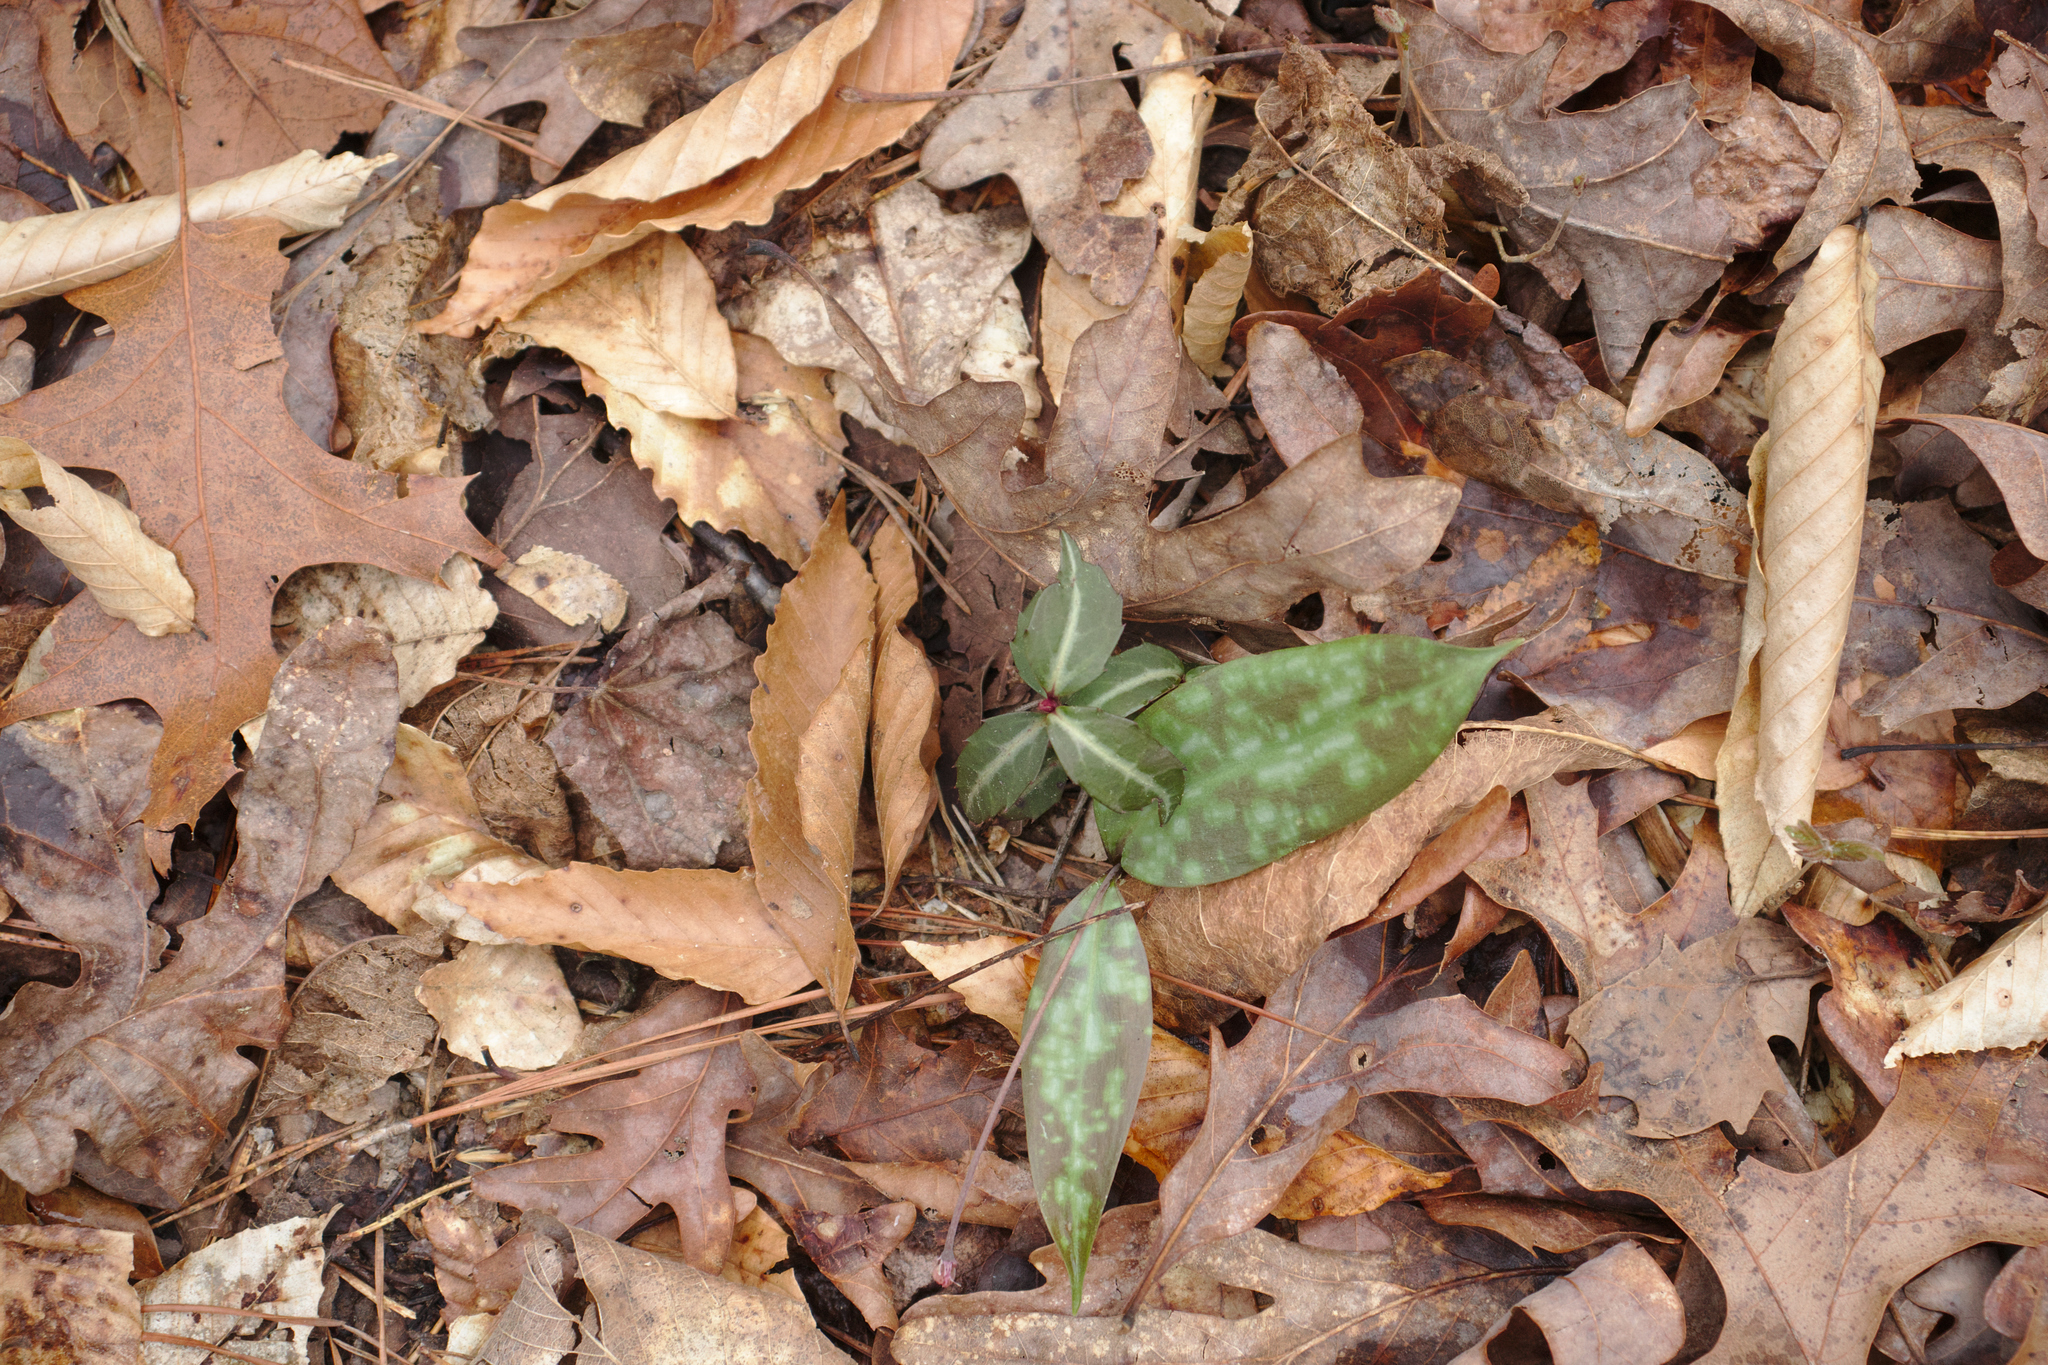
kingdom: Plantae
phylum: Tracheophyta
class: Magnoliopsida
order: Ericales
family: Ericaceae
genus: Chimaphila
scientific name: Chimaphila maculata
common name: Spotted pipsissewa
